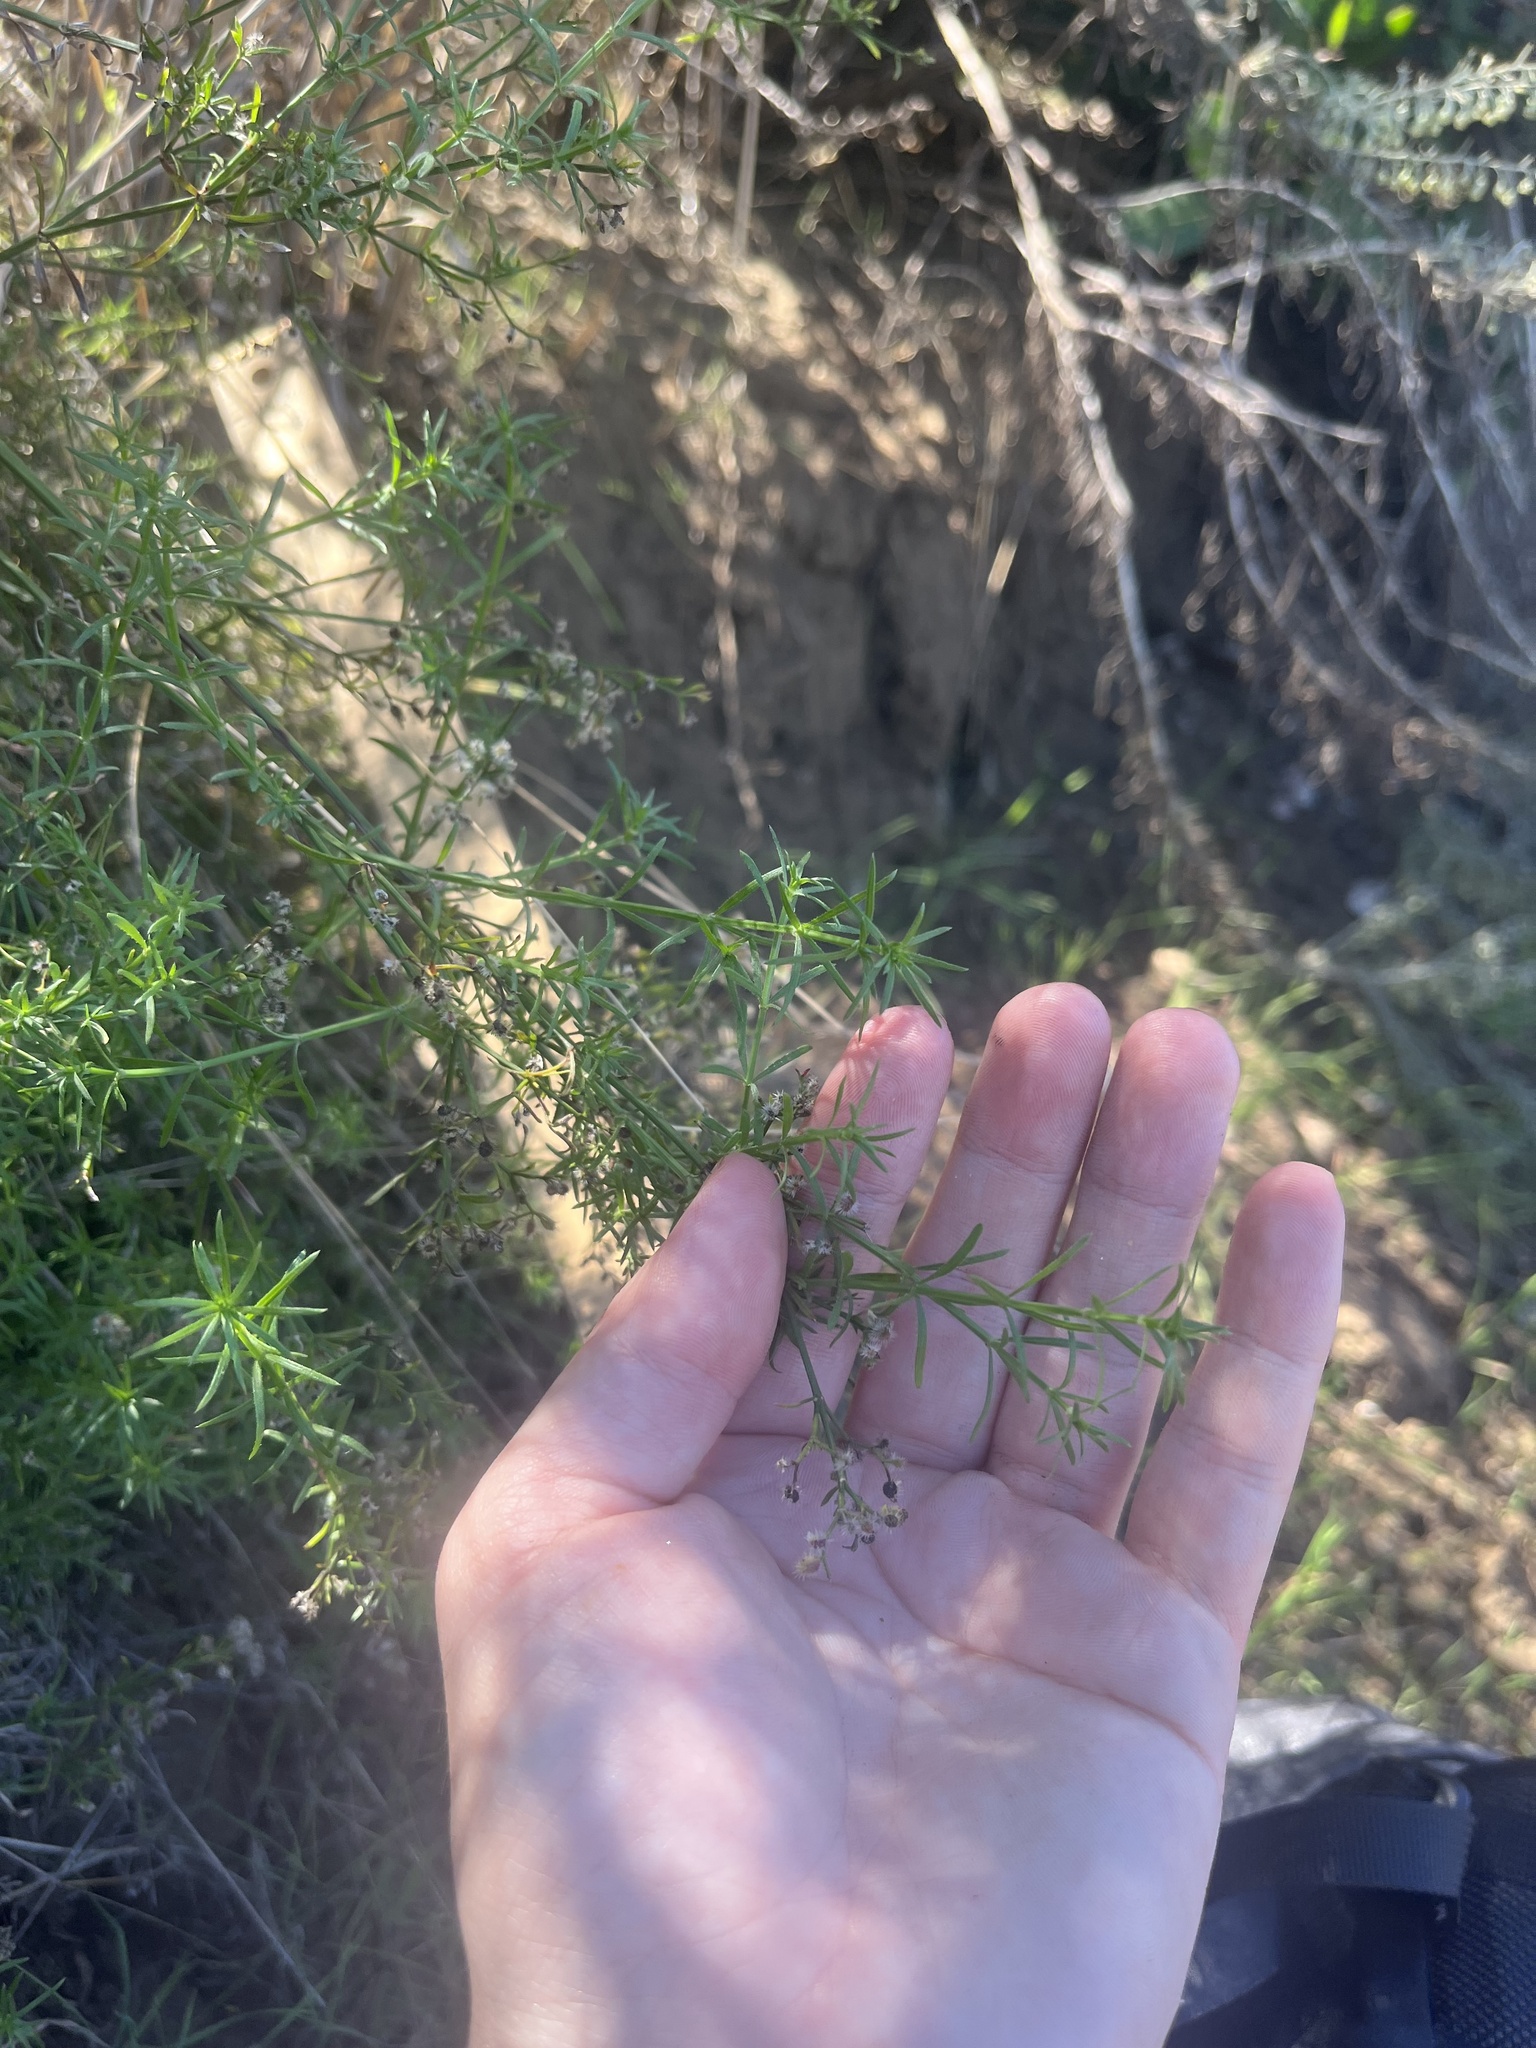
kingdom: Plantae
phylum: Tracheophyta
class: Magnoliopsida
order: Gentianales
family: Rubiaceae
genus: Galium
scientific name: Galium angustifolium
